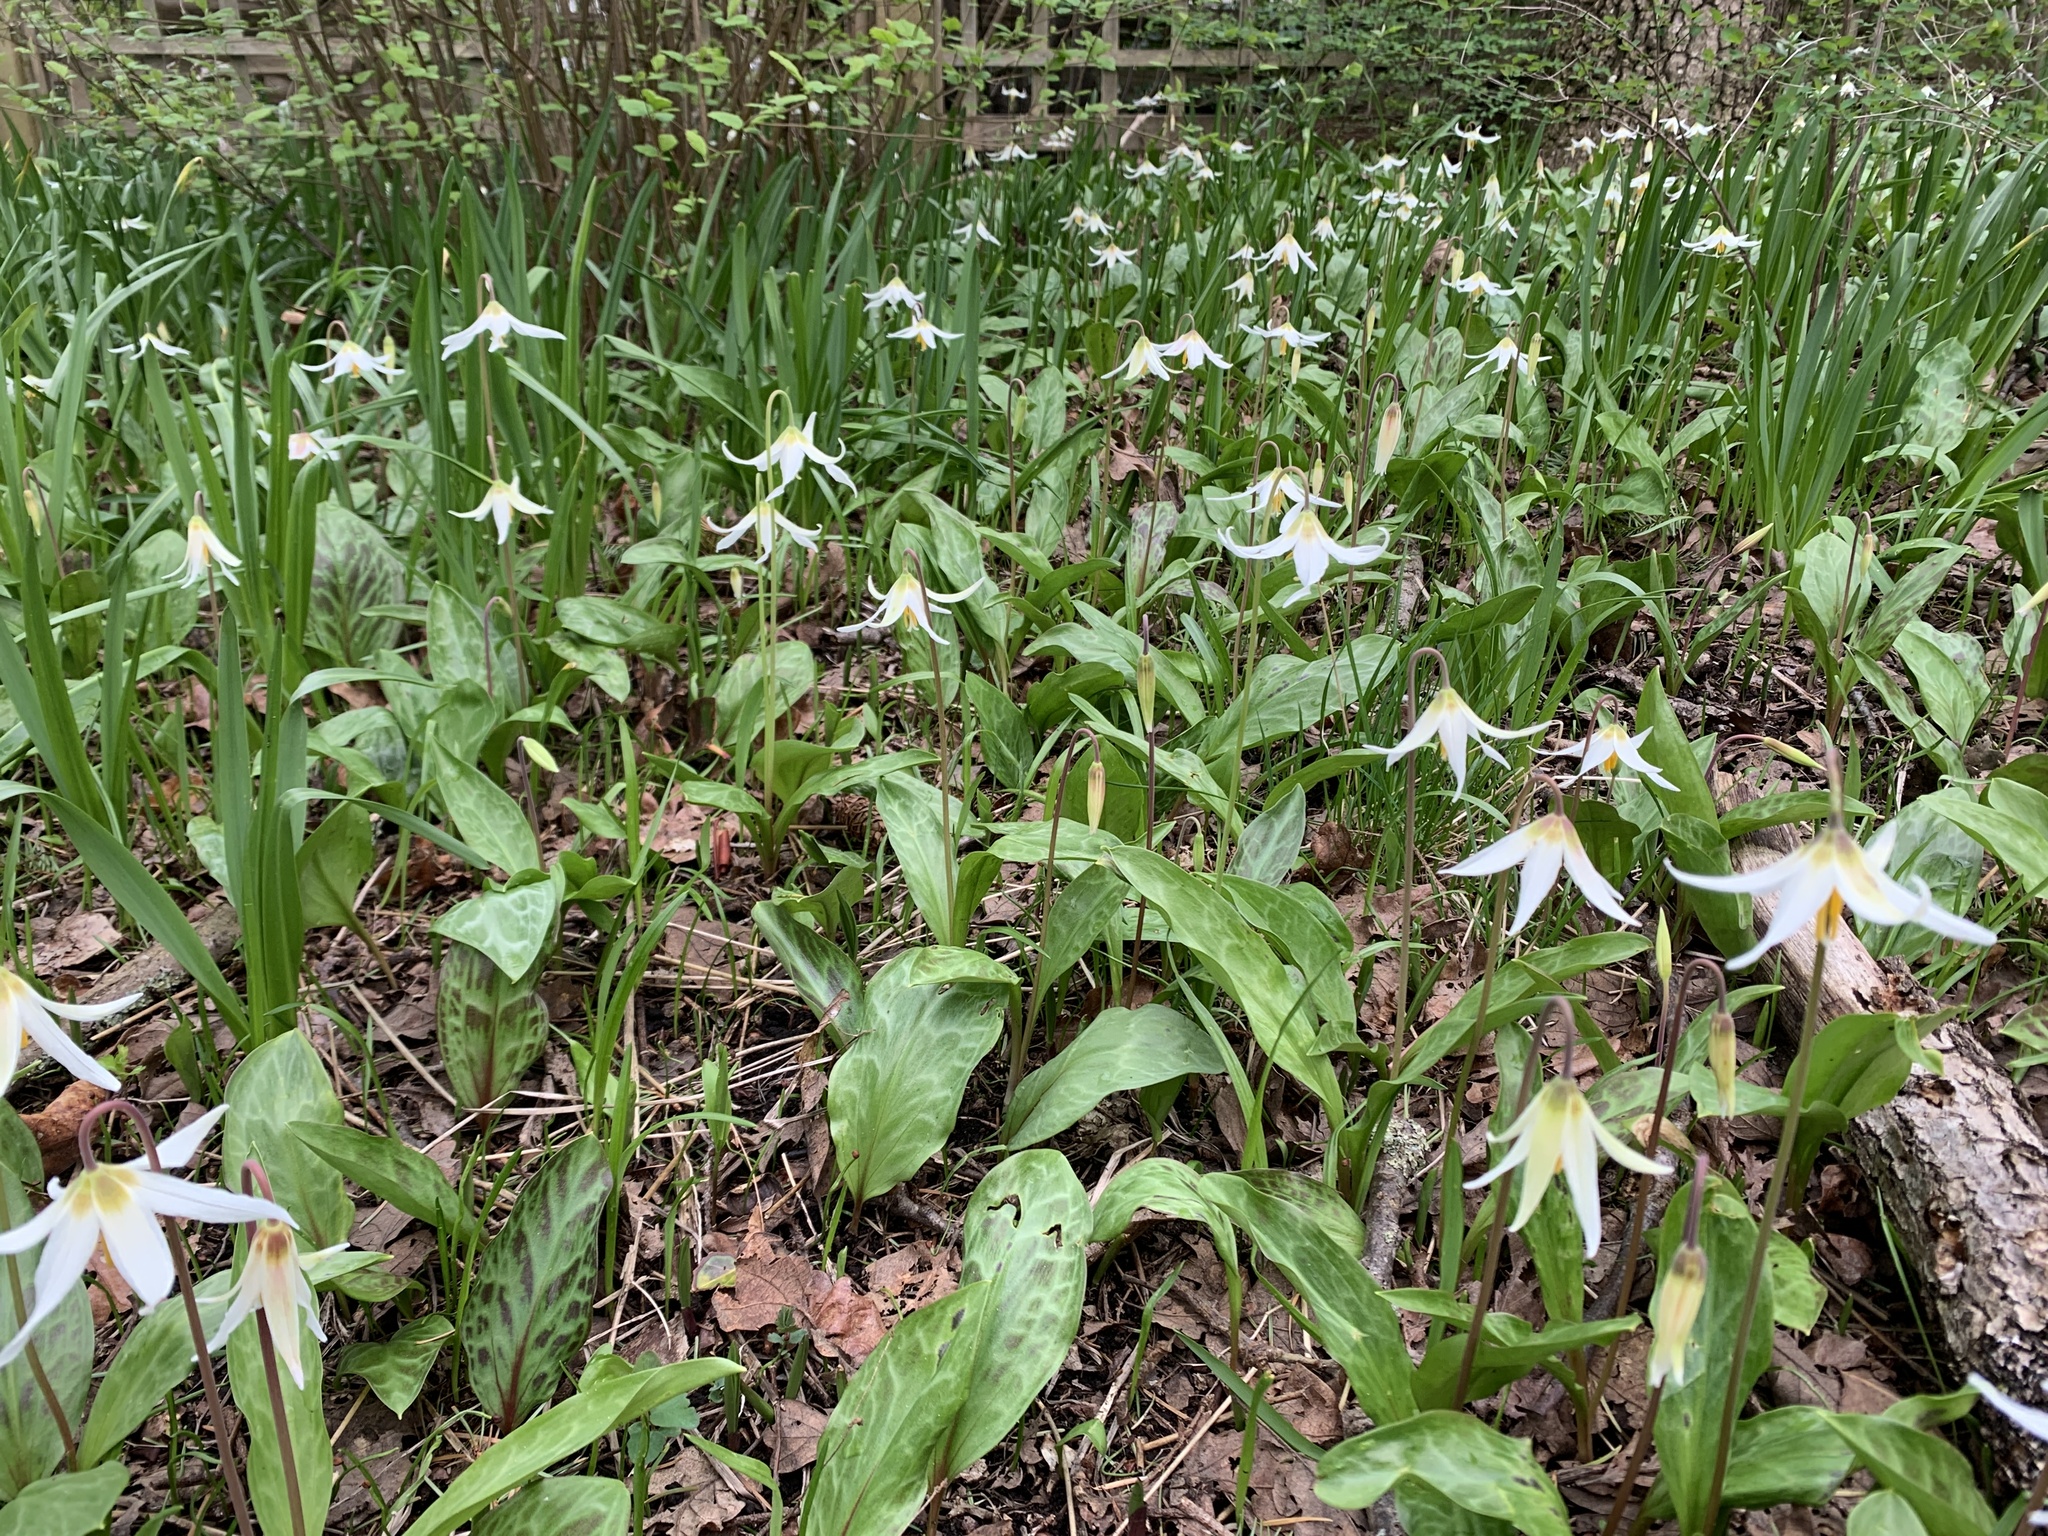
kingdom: Plantae
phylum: Tracheophyta
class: Liliopsida
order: Liliales
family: Liliaceae
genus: Erythronium
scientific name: Erythronium oregonum
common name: Giant adder's-tongue
